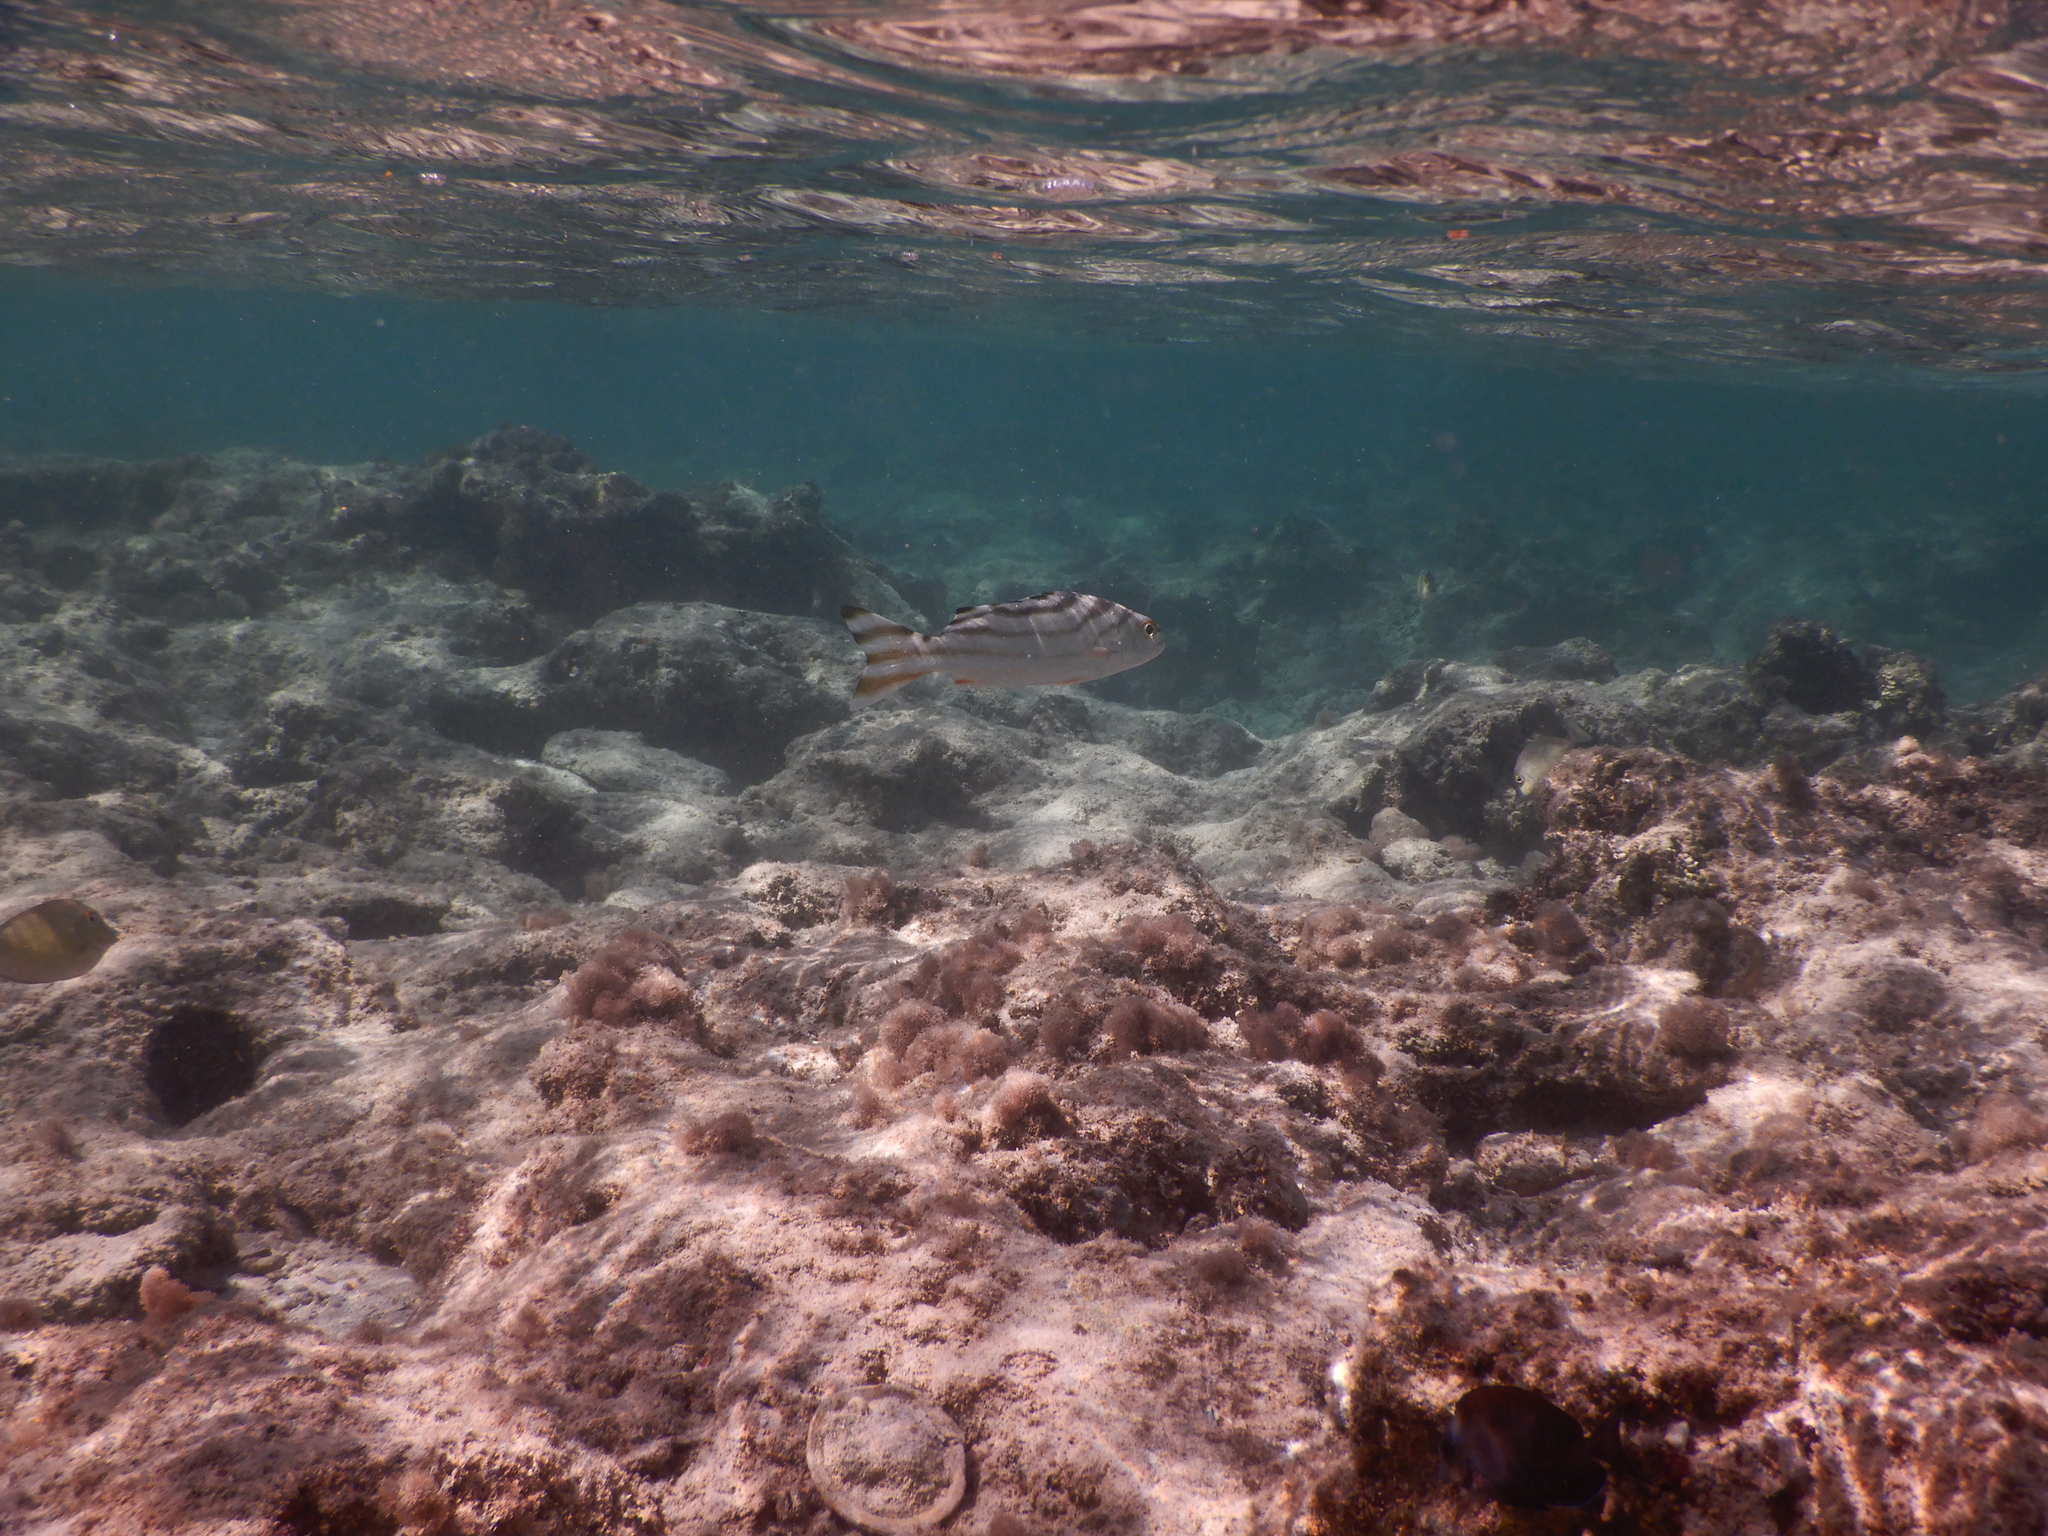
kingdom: Animalia
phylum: Chordata
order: Perciformes
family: Terapontidae
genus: Terapon
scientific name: Terapon jarbua
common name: Jarbua terapon
